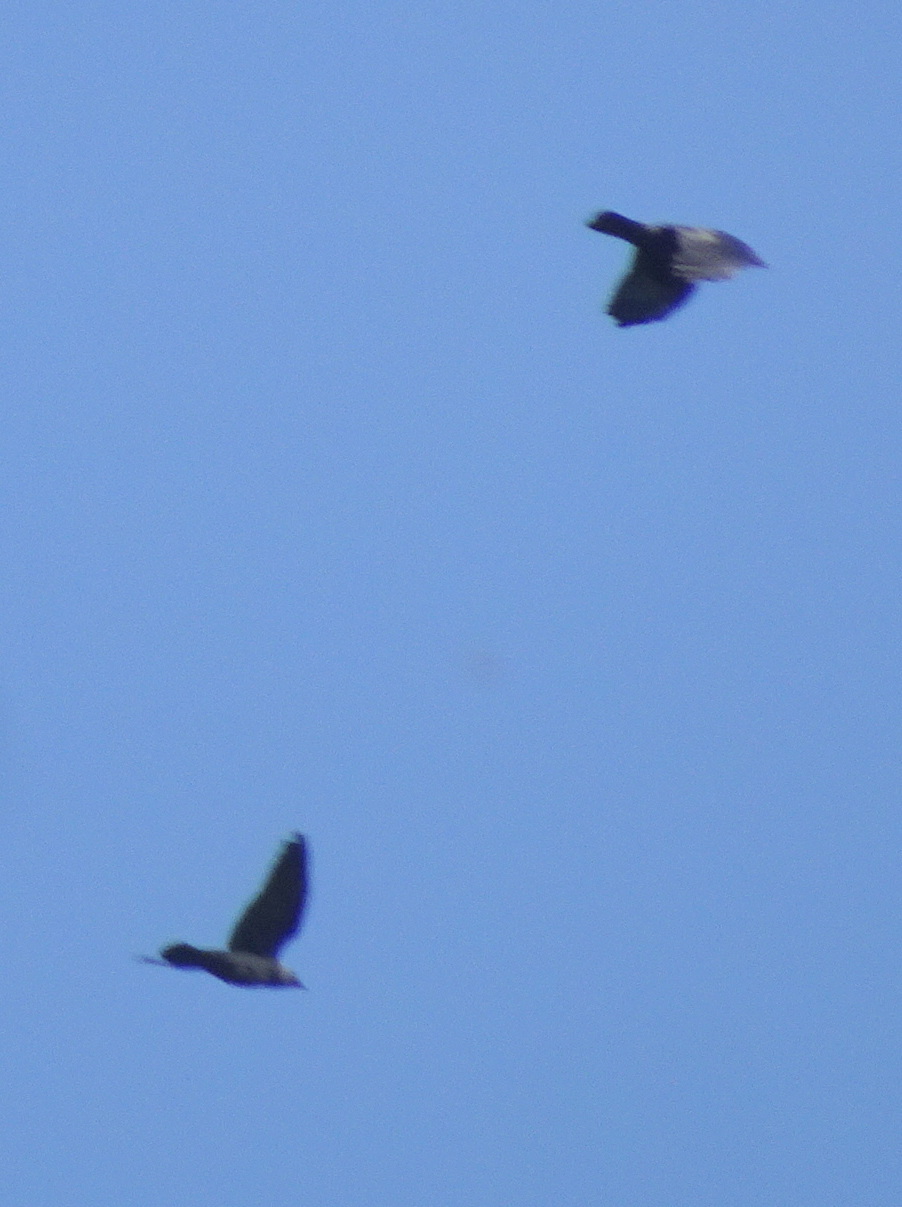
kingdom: Animalia
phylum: Chordata
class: Aves
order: Passeriformes
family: Corvidae
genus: Coloeus
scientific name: Coloeus monedula
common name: Western jackdaw
